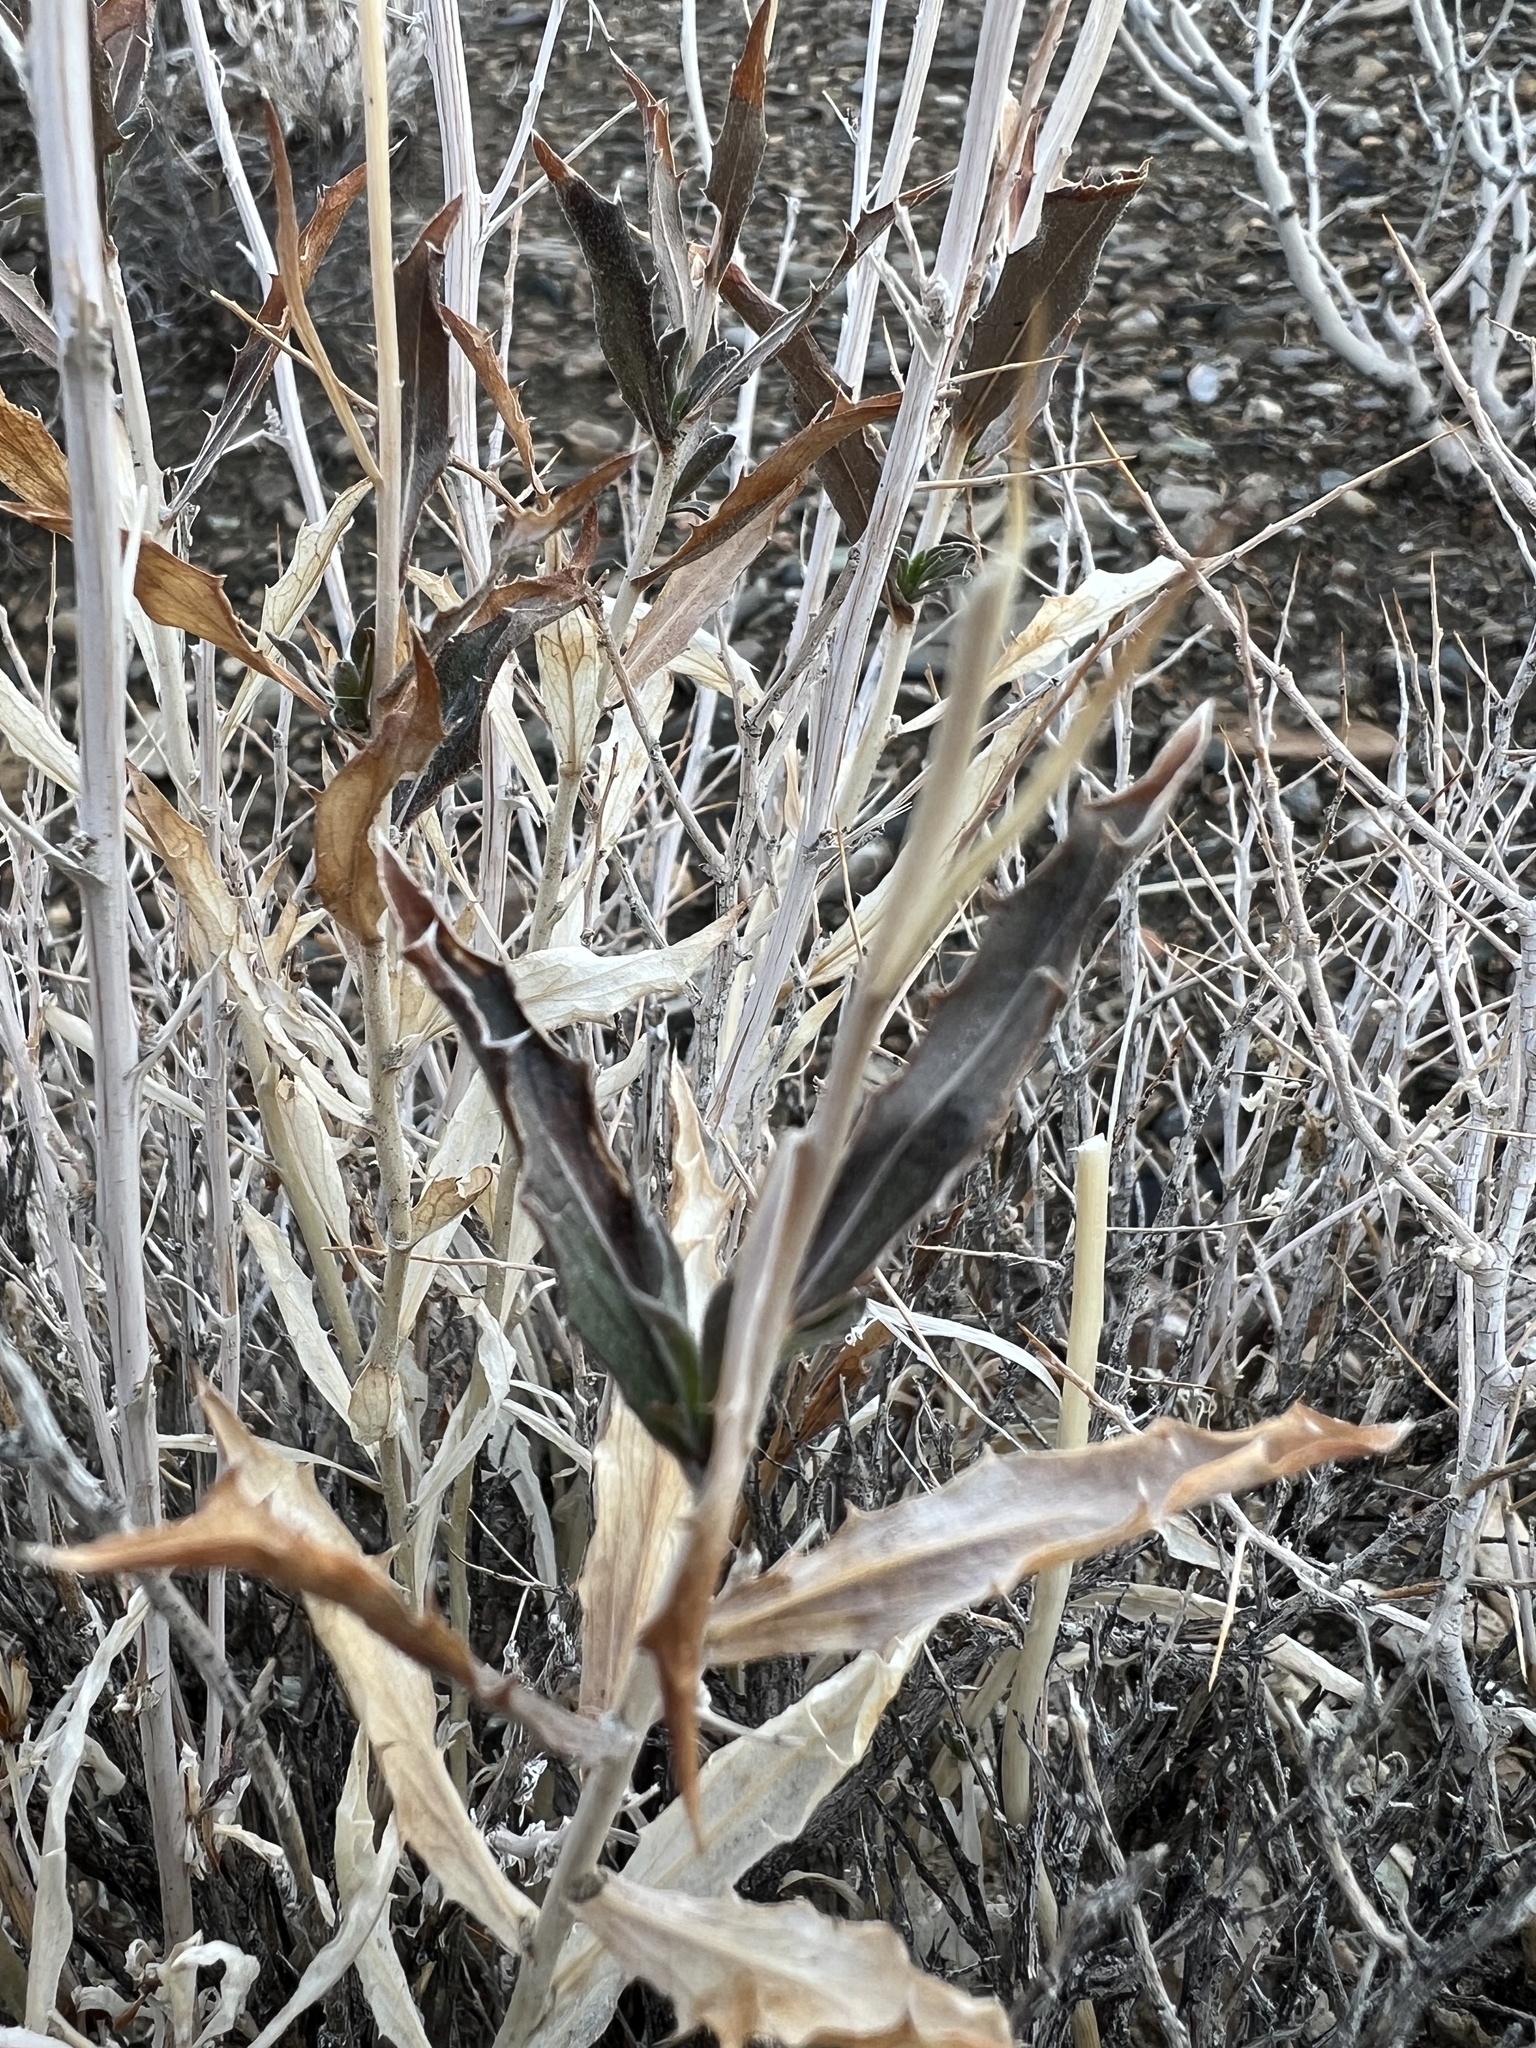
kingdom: Plantae
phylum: Tracheophyta
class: Magnoliopsida
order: Asterales
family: Asteraceae
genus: Xylorhiza
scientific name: Xylorhiza tortifolia
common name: Hurt-leaf woody-aster
